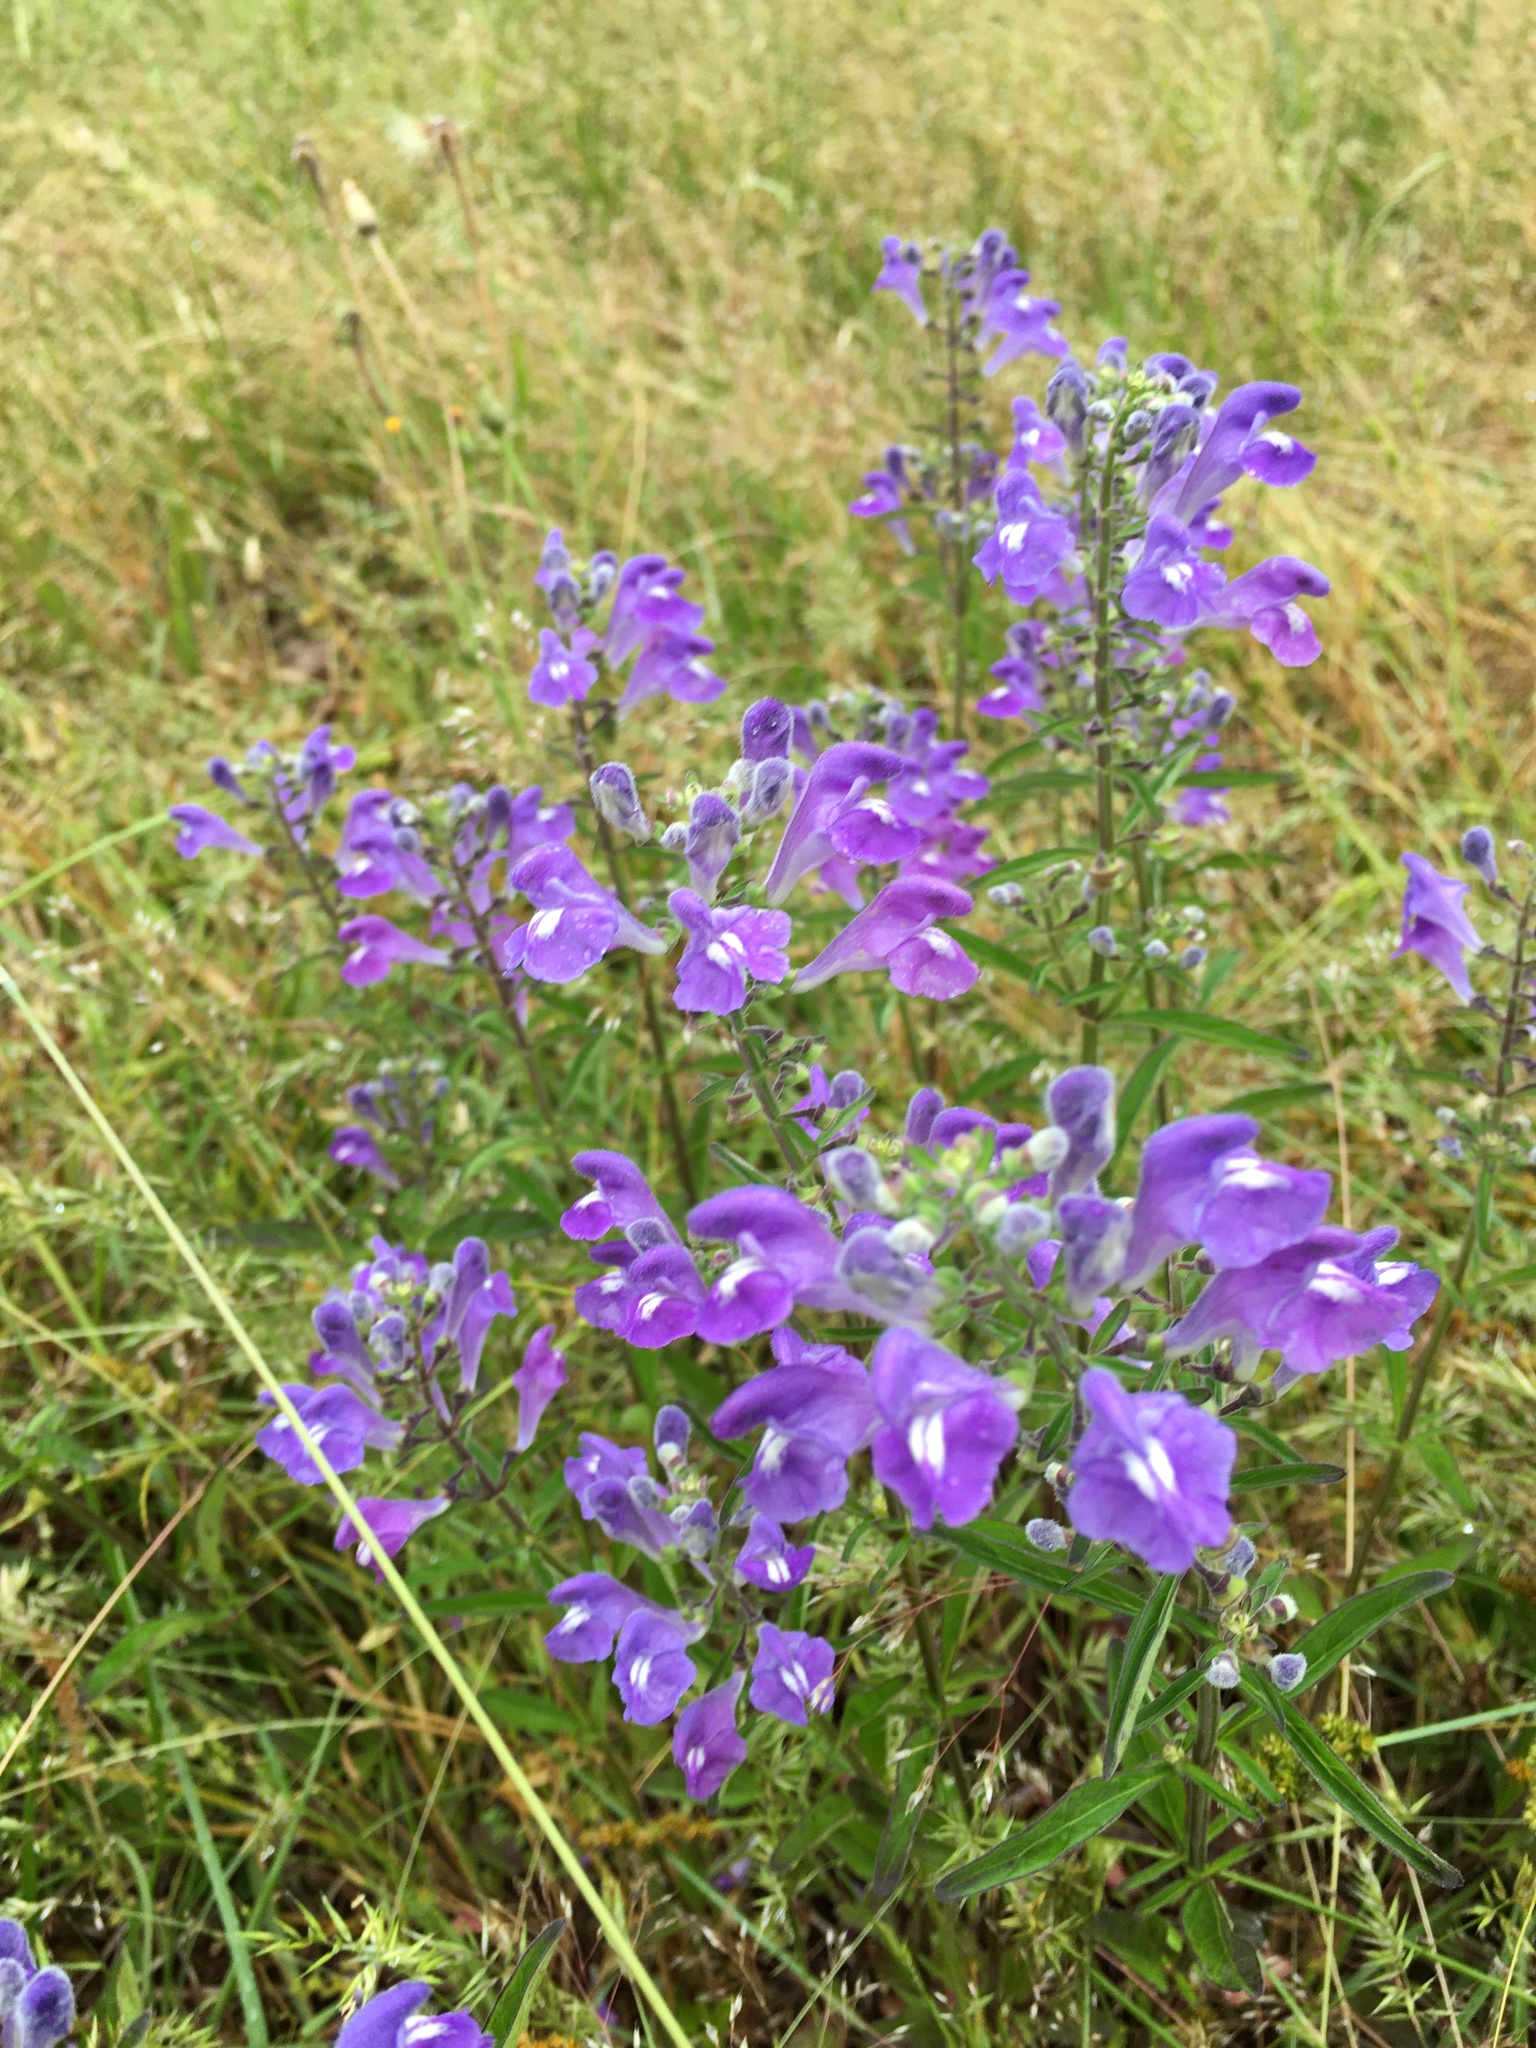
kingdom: Plantae
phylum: Tracheophyta
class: Magnoliopsida
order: Lamiales
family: Lamiaceae
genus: Scutellaria
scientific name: Scutellaria integrifolia
